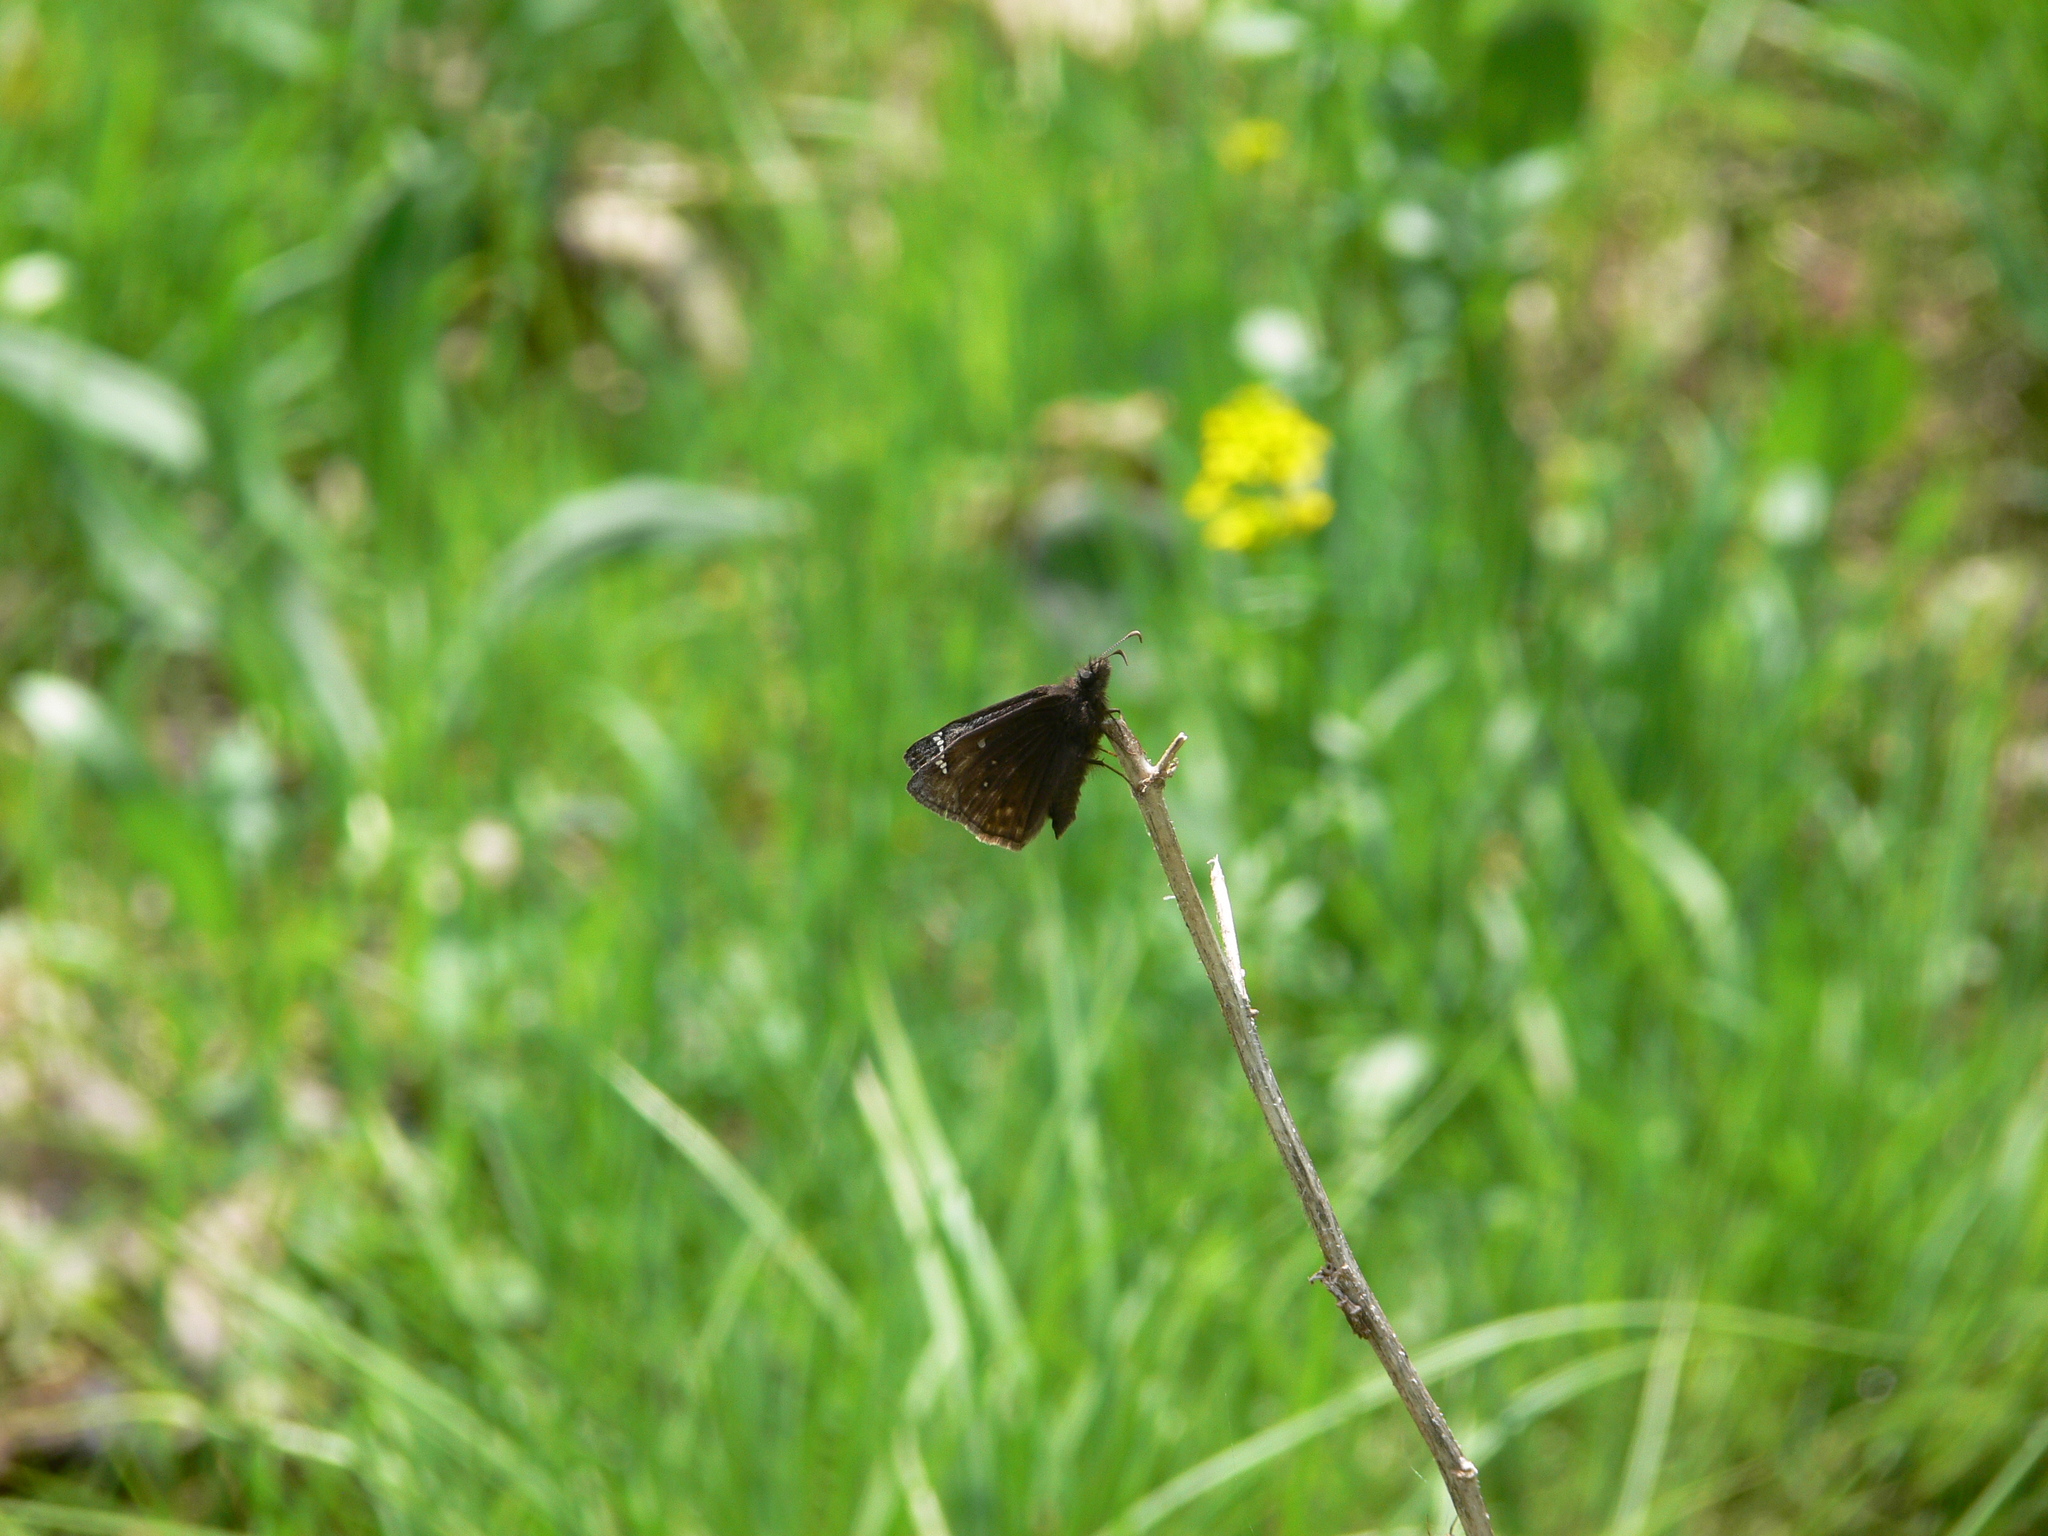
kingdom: Animalia
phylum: Arthropoda
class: Insecta
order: Lepidoptera
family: Hesperiidae
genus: Erynnis
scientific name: Erynnis juvenalis
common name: Juvenal's duskywing
